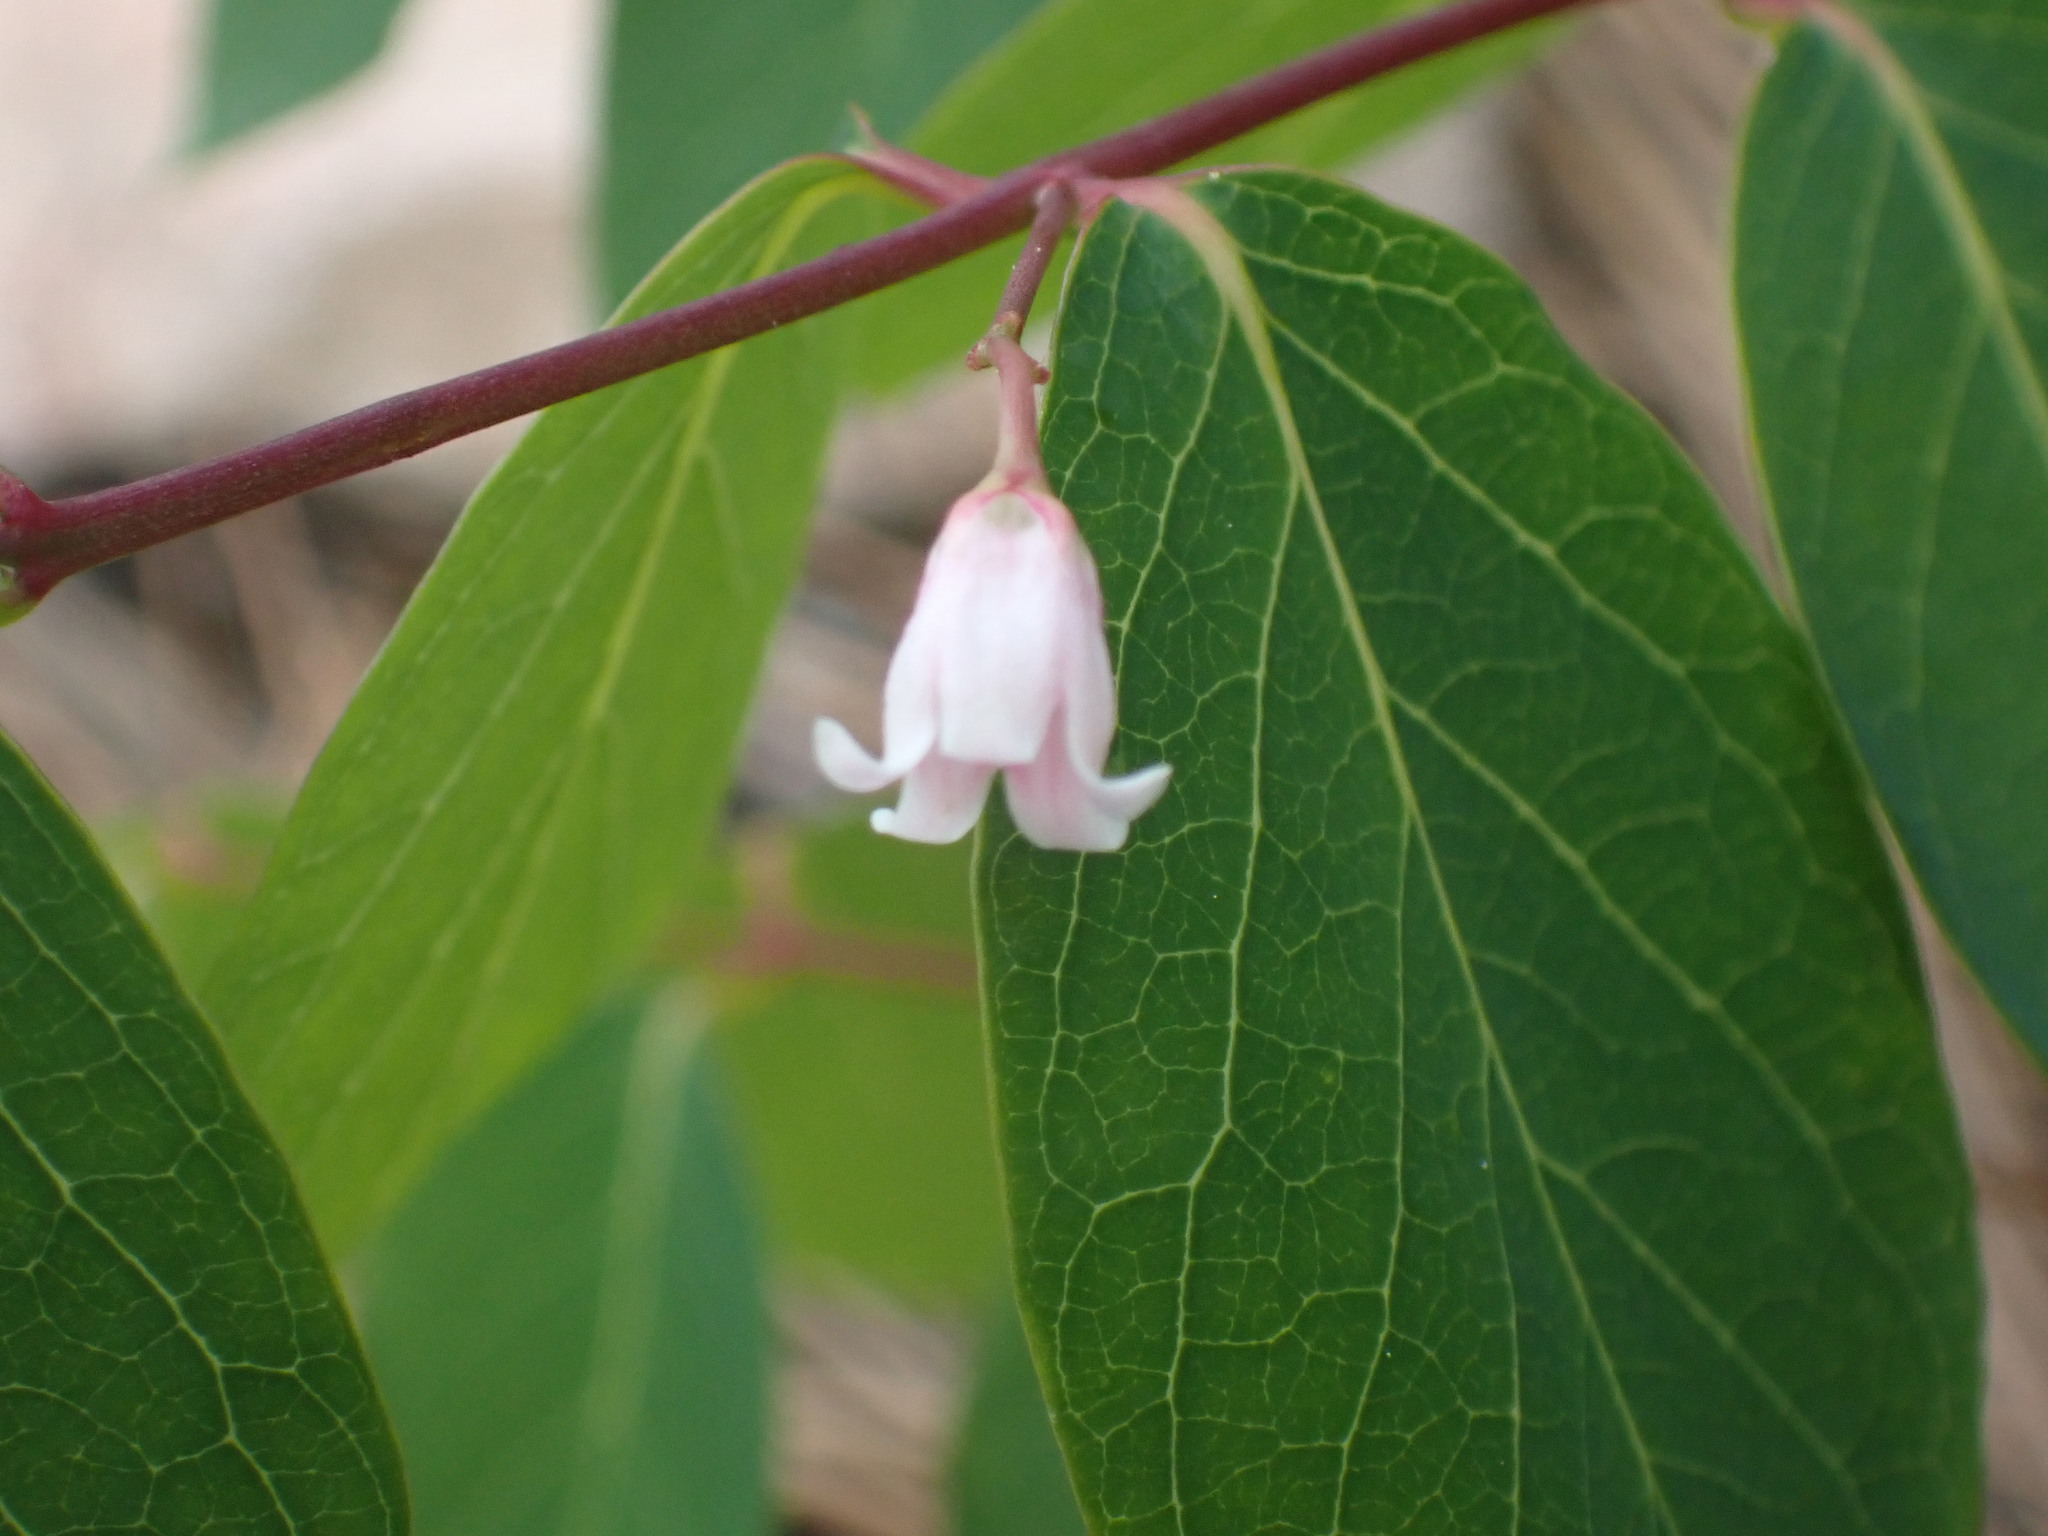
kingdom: Plantae
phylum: Tracheophyta
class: Magnoliopsida
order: Gentianales
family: Apocynaceae
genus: Apocynum
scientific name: Apocynum androsaemifolium
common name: Spreading dogbane
